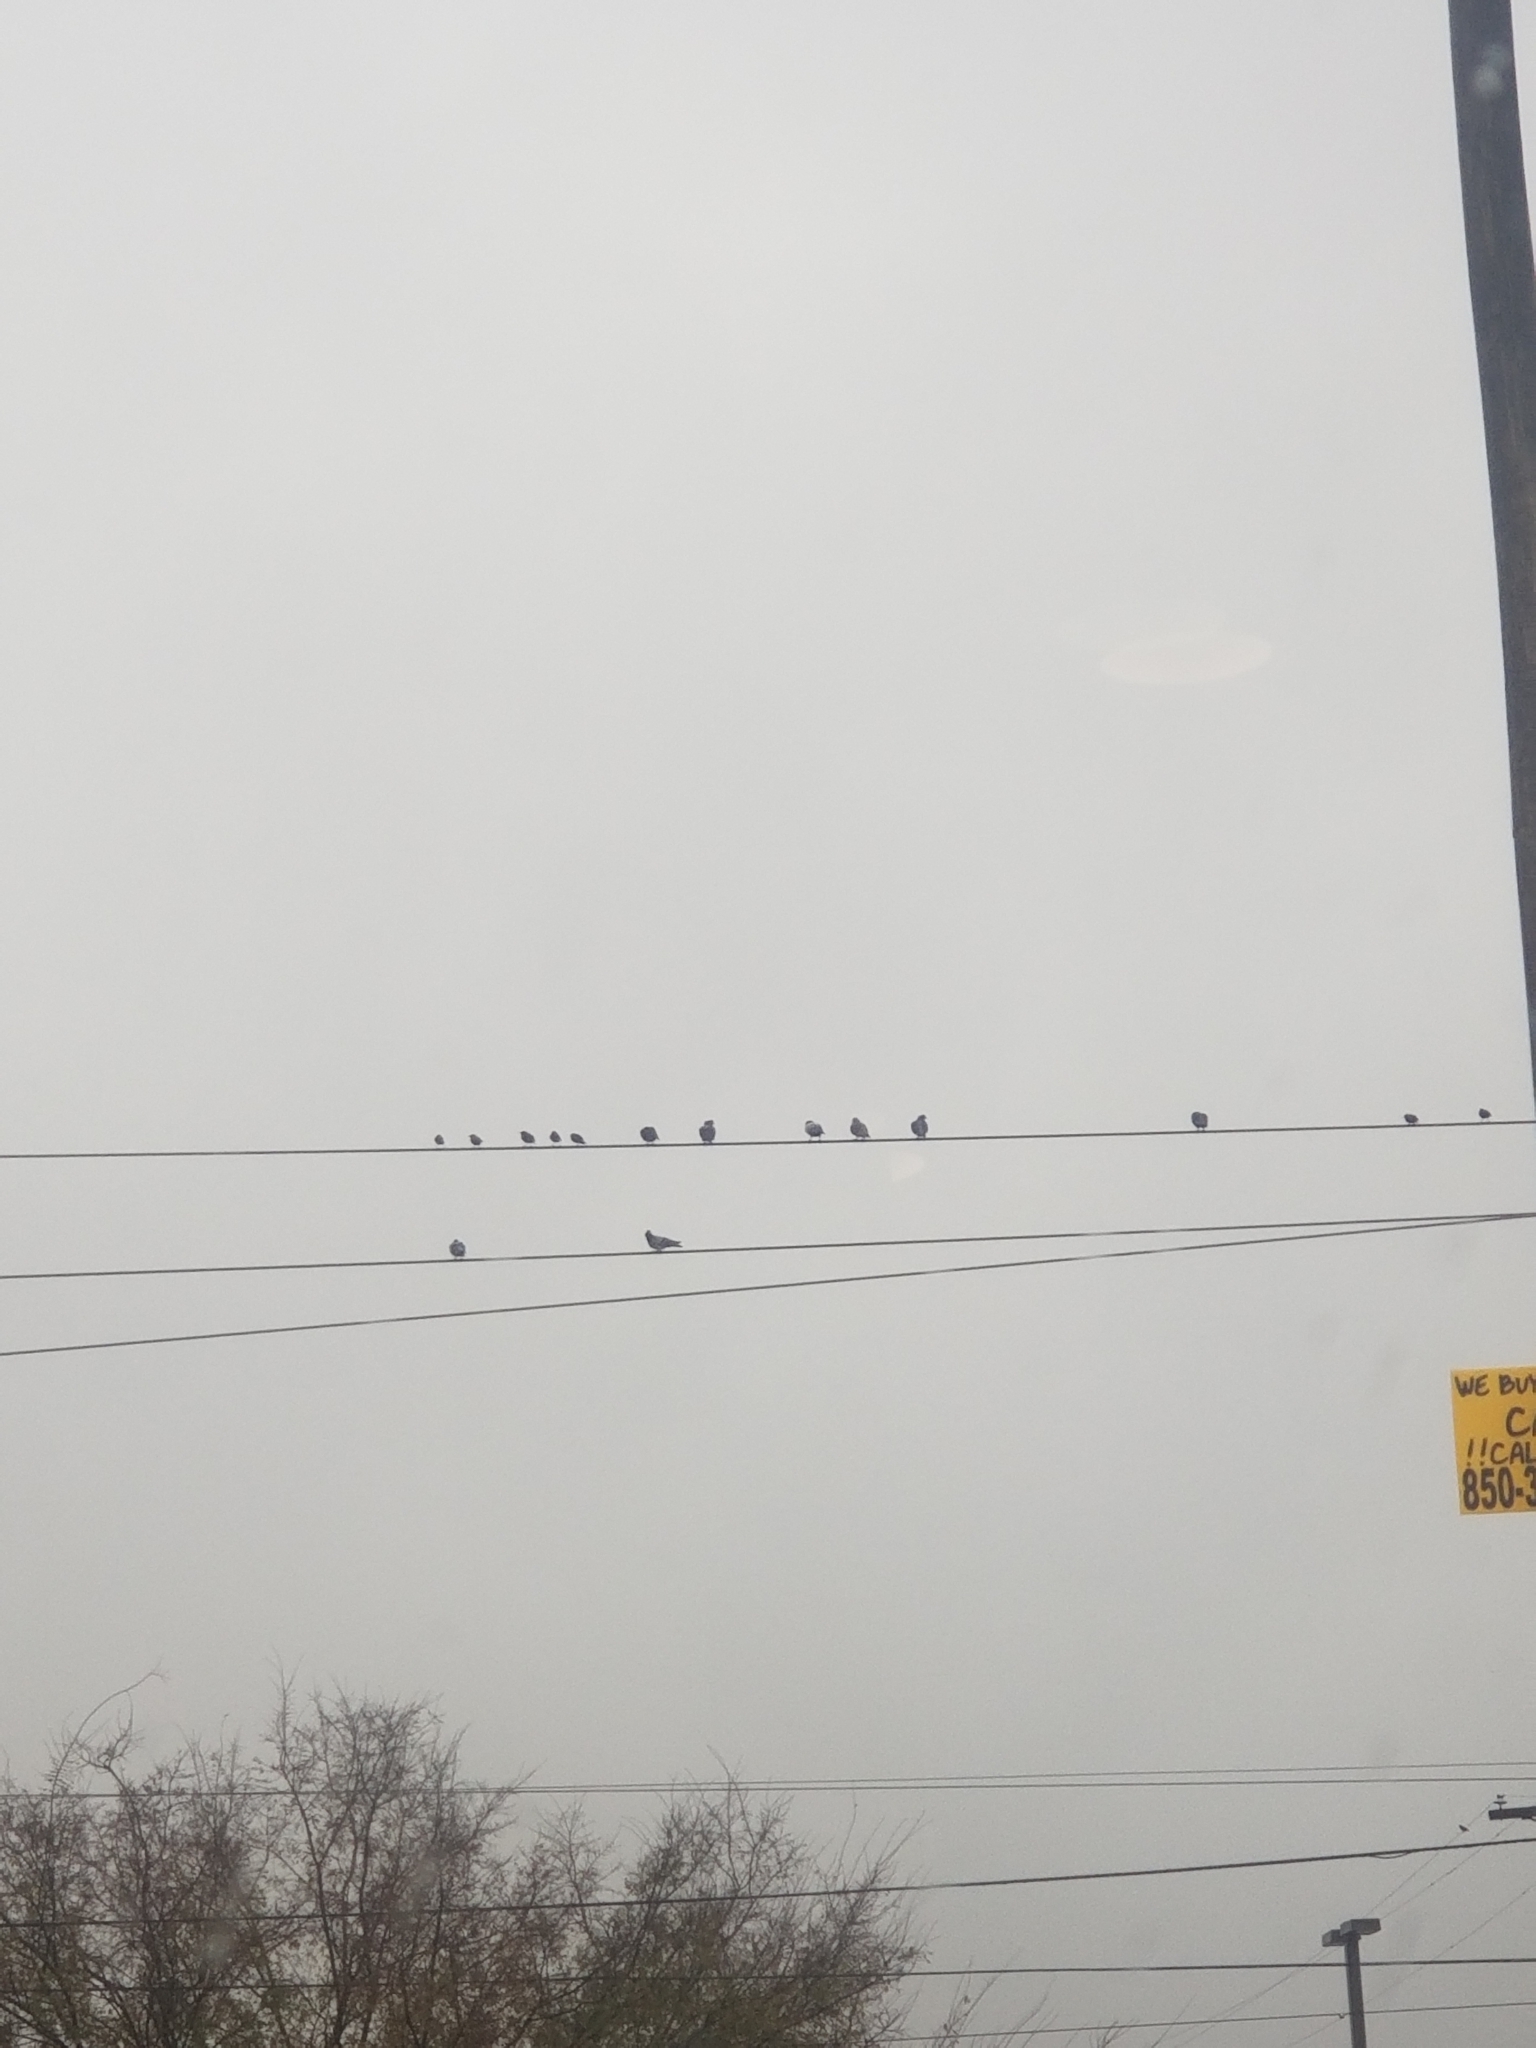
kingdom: Animalia
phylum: Chordata
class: Aves
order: Columbiformes
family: Columbidae
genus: Columba
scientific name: Columba livia
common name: Rock pigeon
